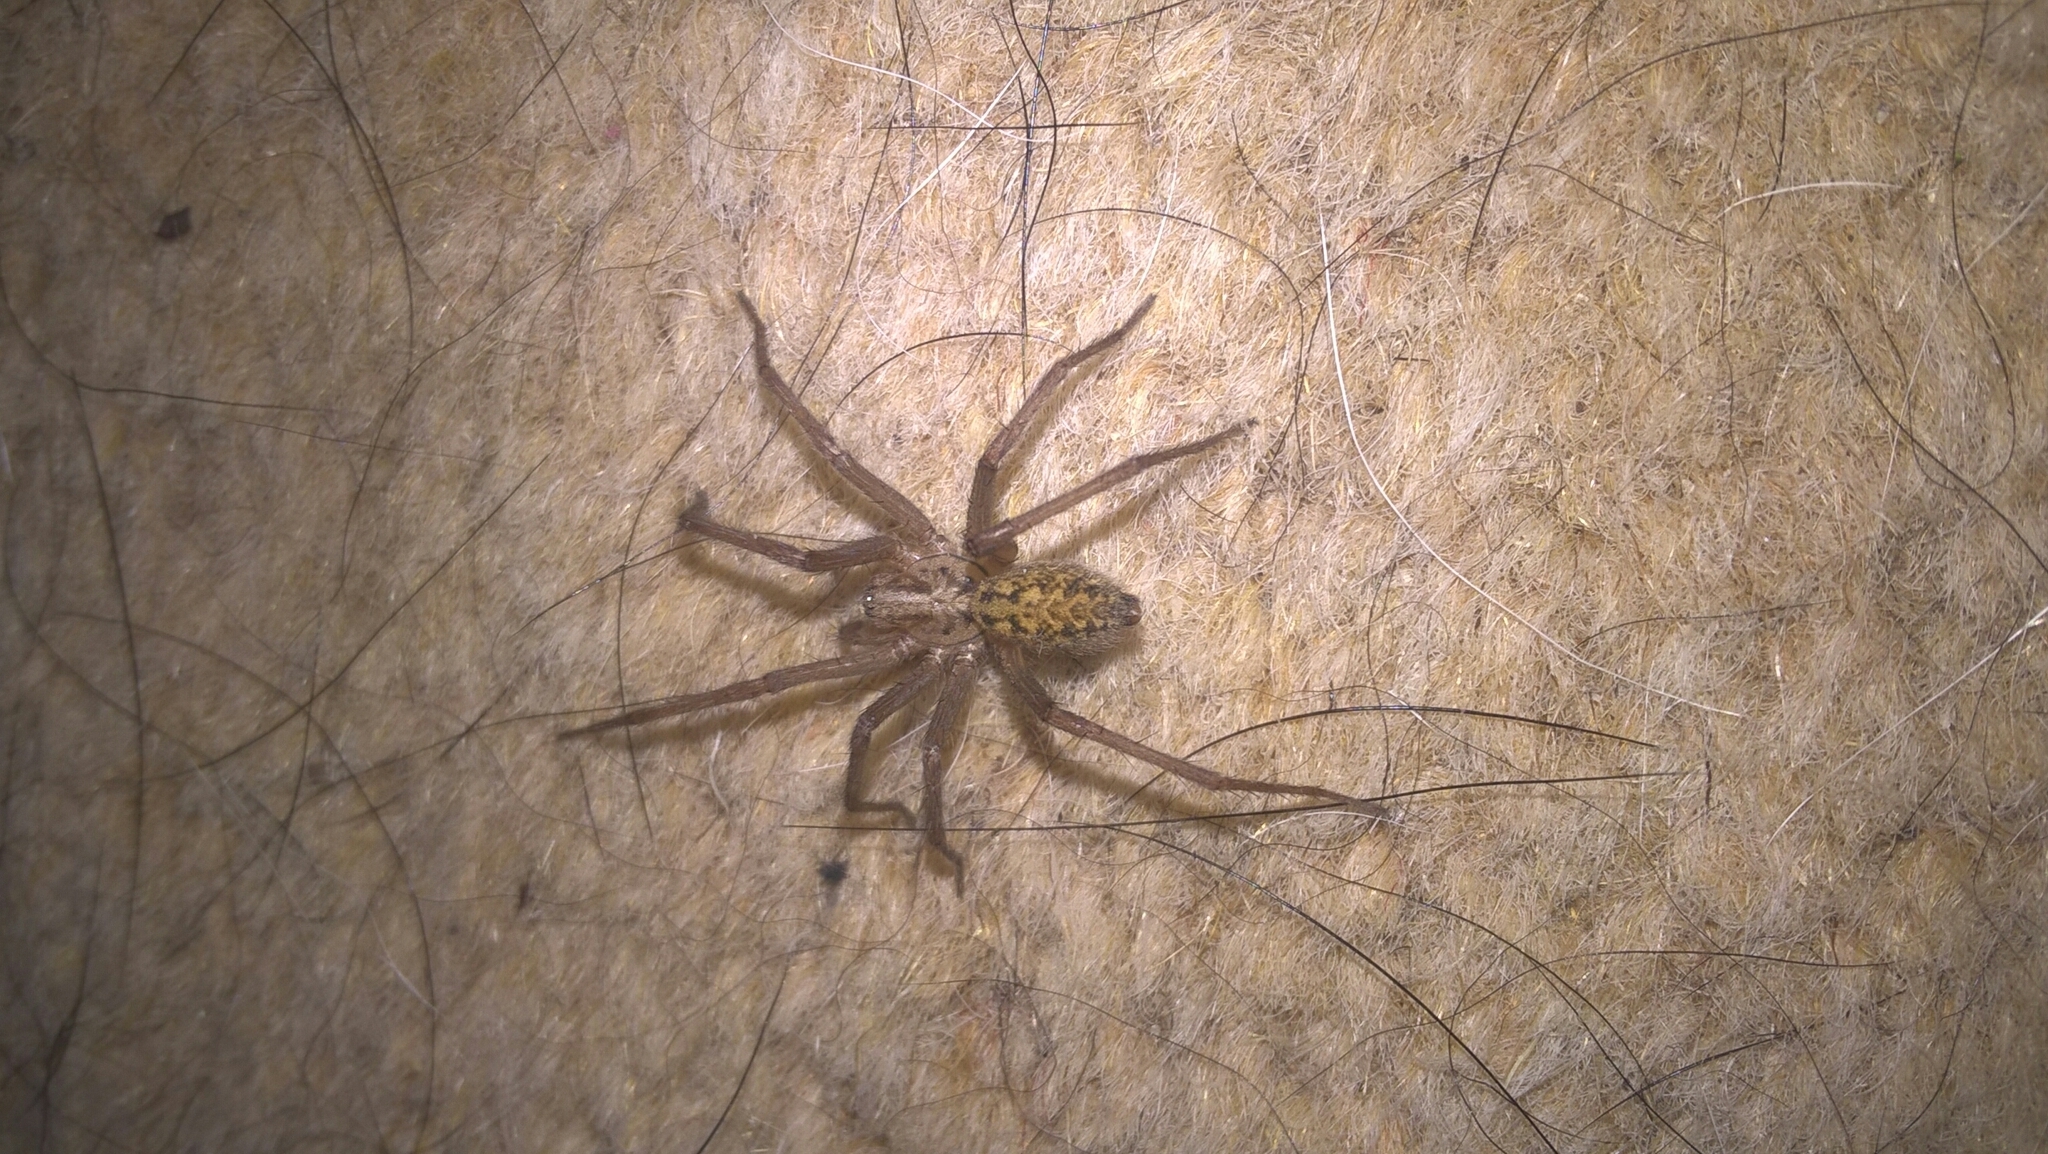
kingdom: Animalia
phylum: Arthropoda
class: Arachnida
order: Araneae
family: Agelenidae
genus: Eratigena
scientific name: Eratigena duellica
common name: Giant house spider
